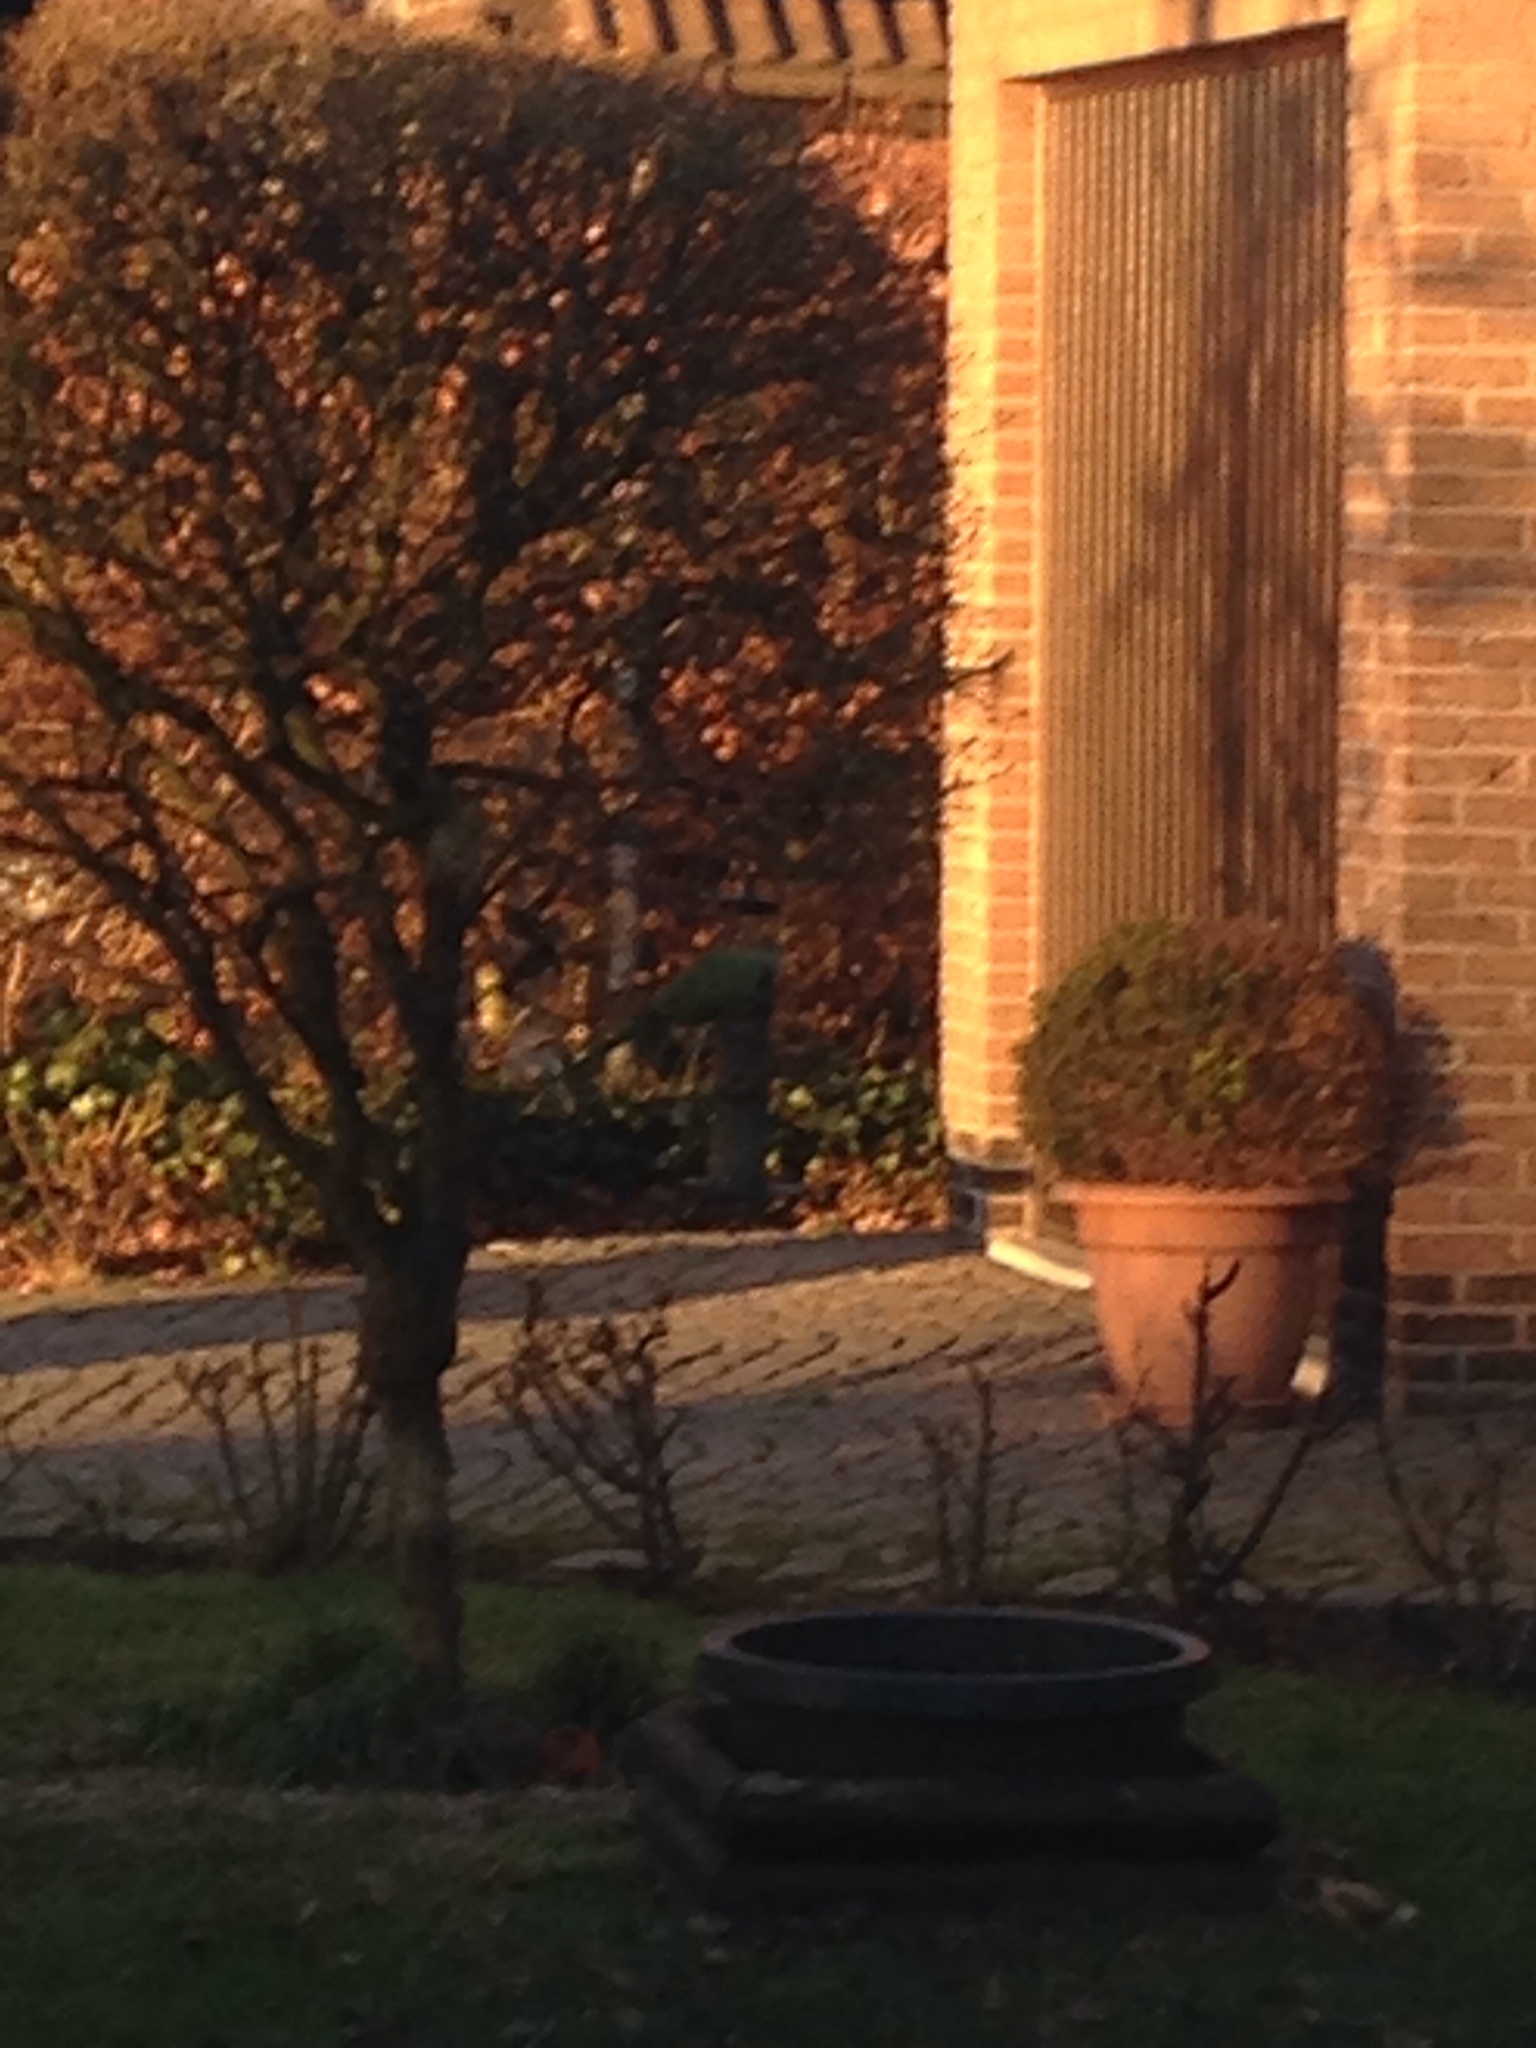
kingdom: Animalia
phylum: Chordata
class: Aves
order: Psittaciformes
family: Psittacidae
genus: Psittacula
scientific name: Psittacula krameri
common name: Rose-ringed parakeet
